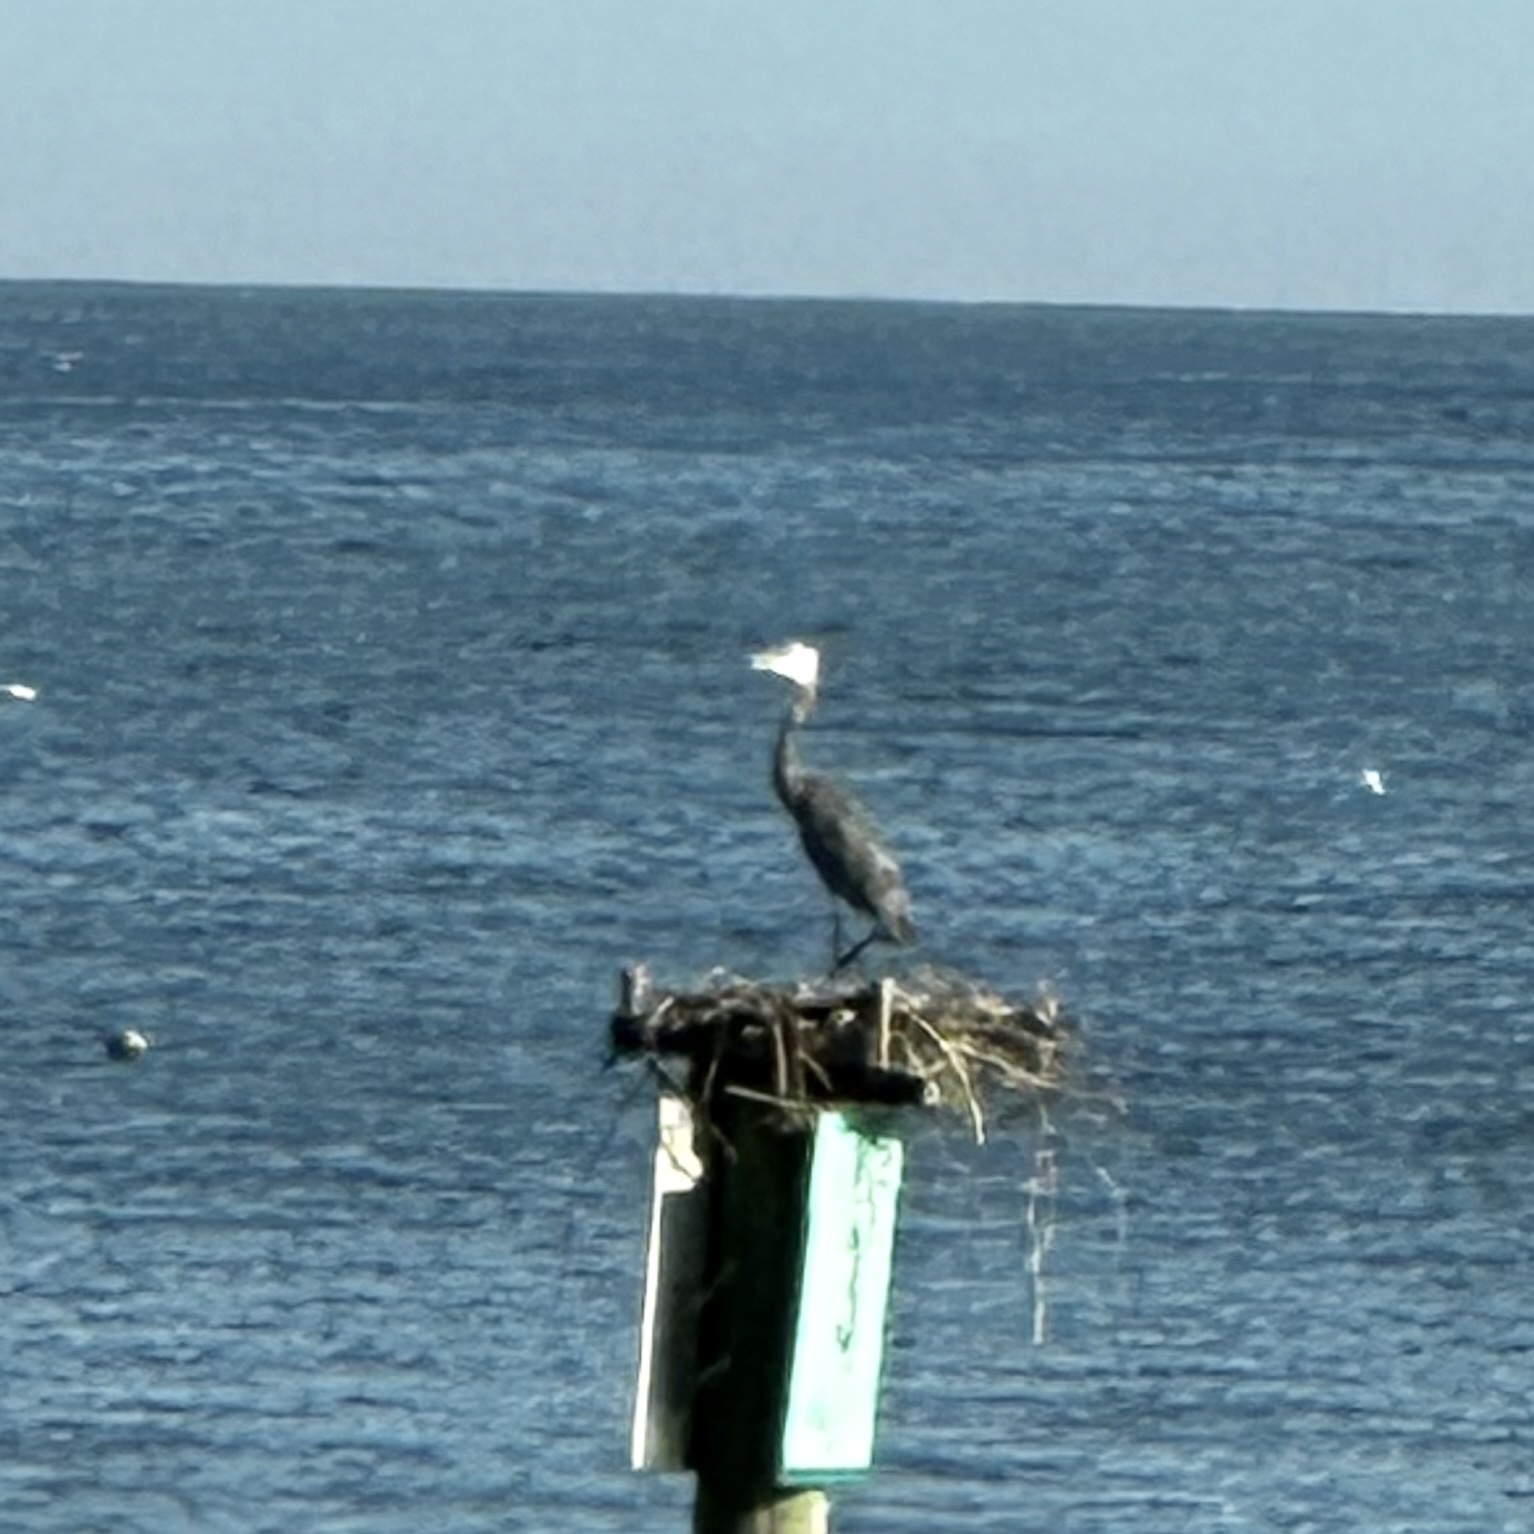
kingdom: Animalia
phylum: Chordata
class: Aves
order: Pelecaniformes
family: Ardeidae
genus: Ardea
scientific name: Ardea herodias
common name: Great blue heron
